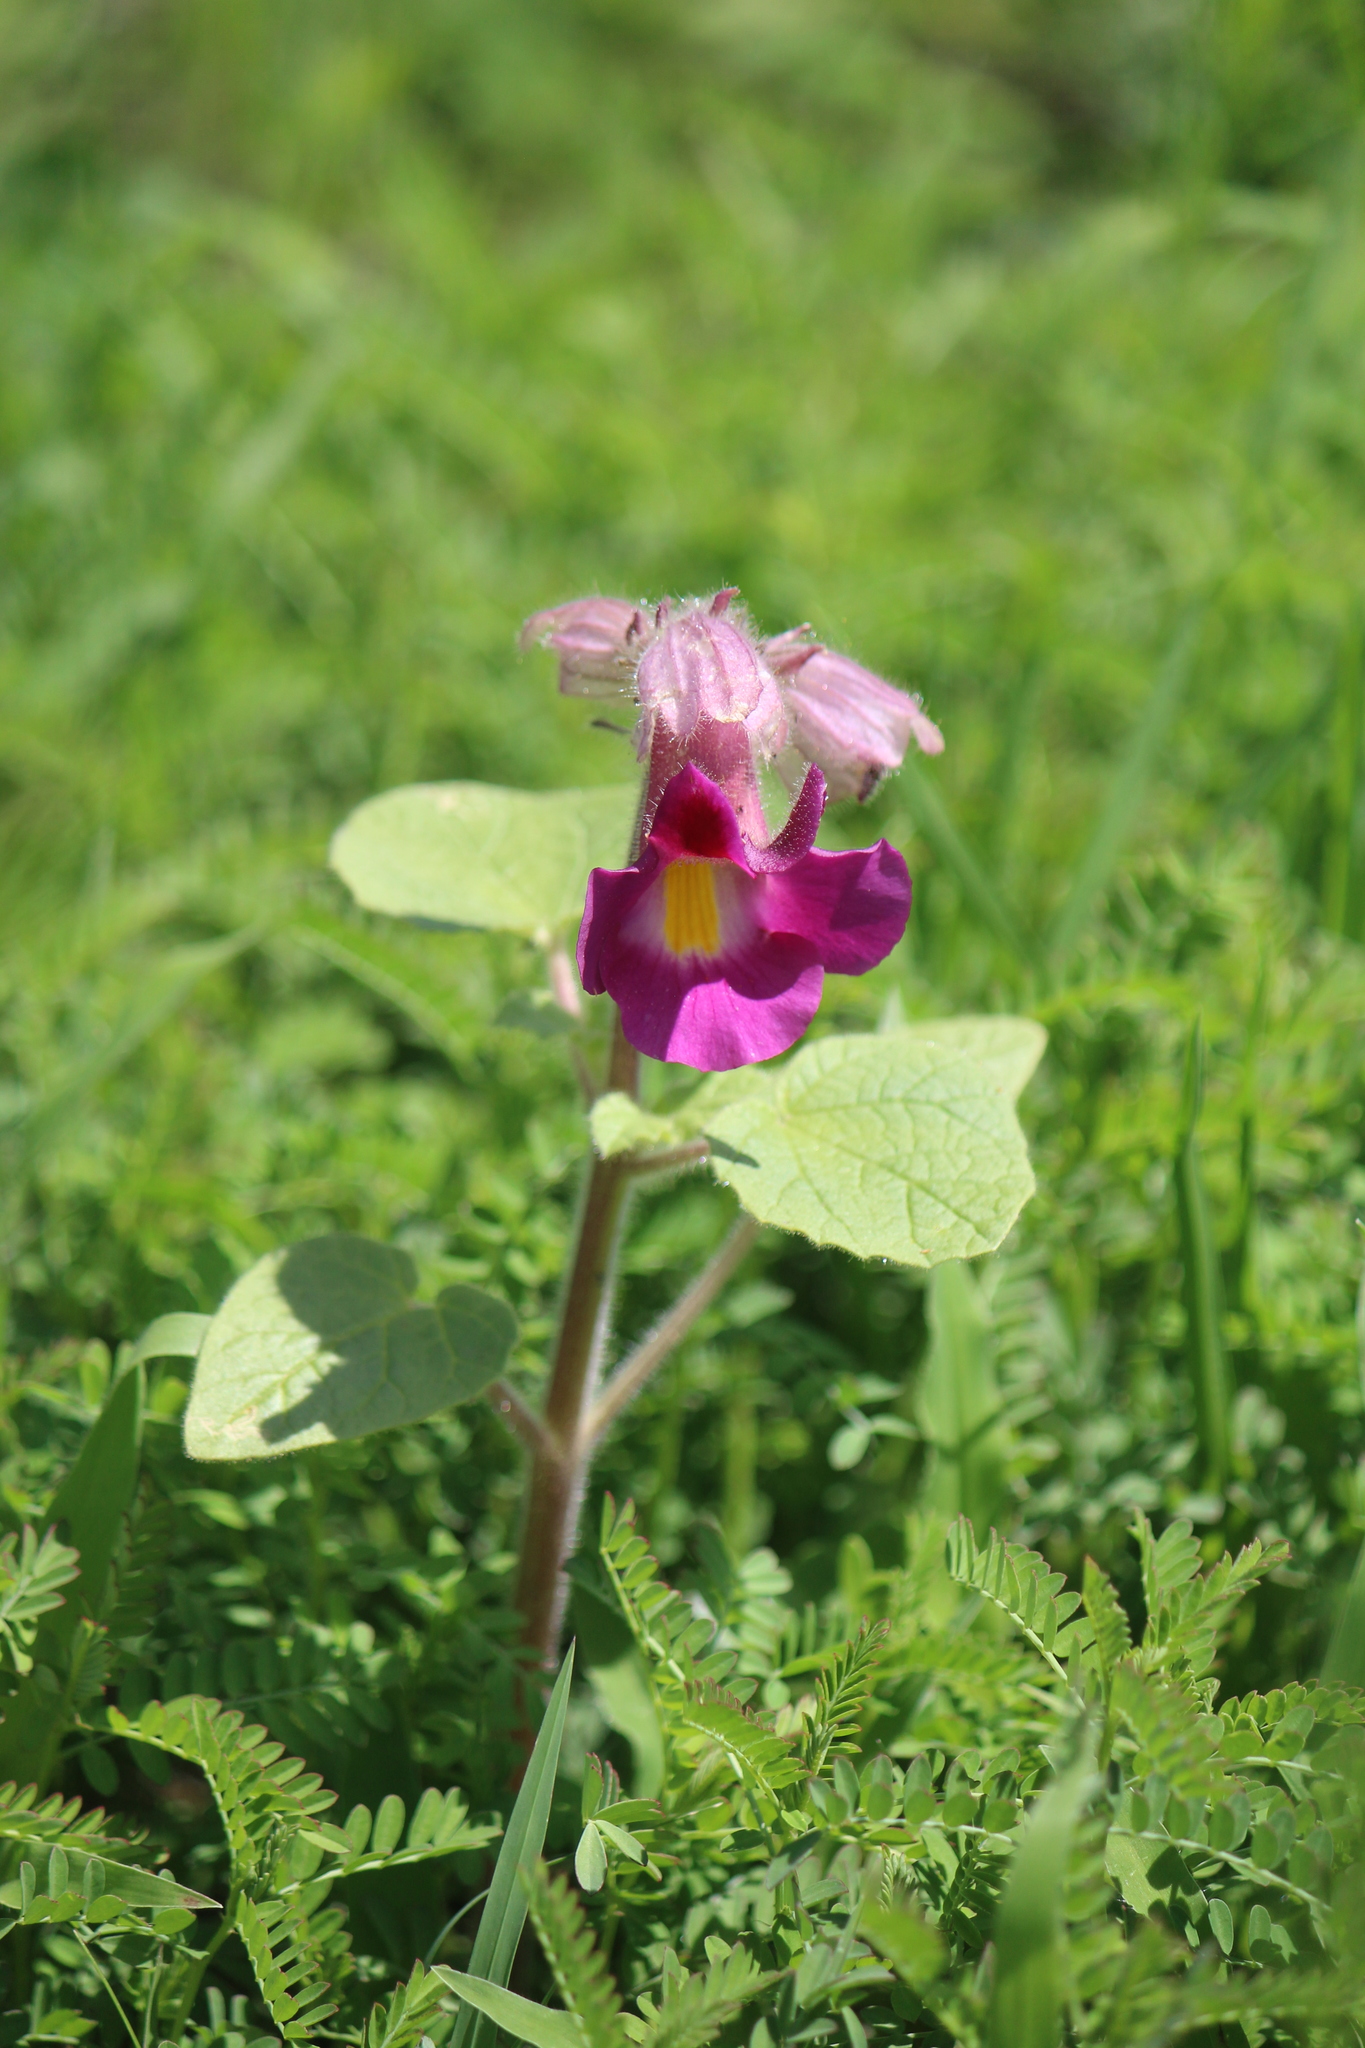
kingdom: Plantae
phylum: Tracheophyta
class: Magnoliopsida
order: Lamiales
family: Martyniaceae
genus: Proboscidea
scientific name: Proboscidea louisianica
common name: Elephant tusks
